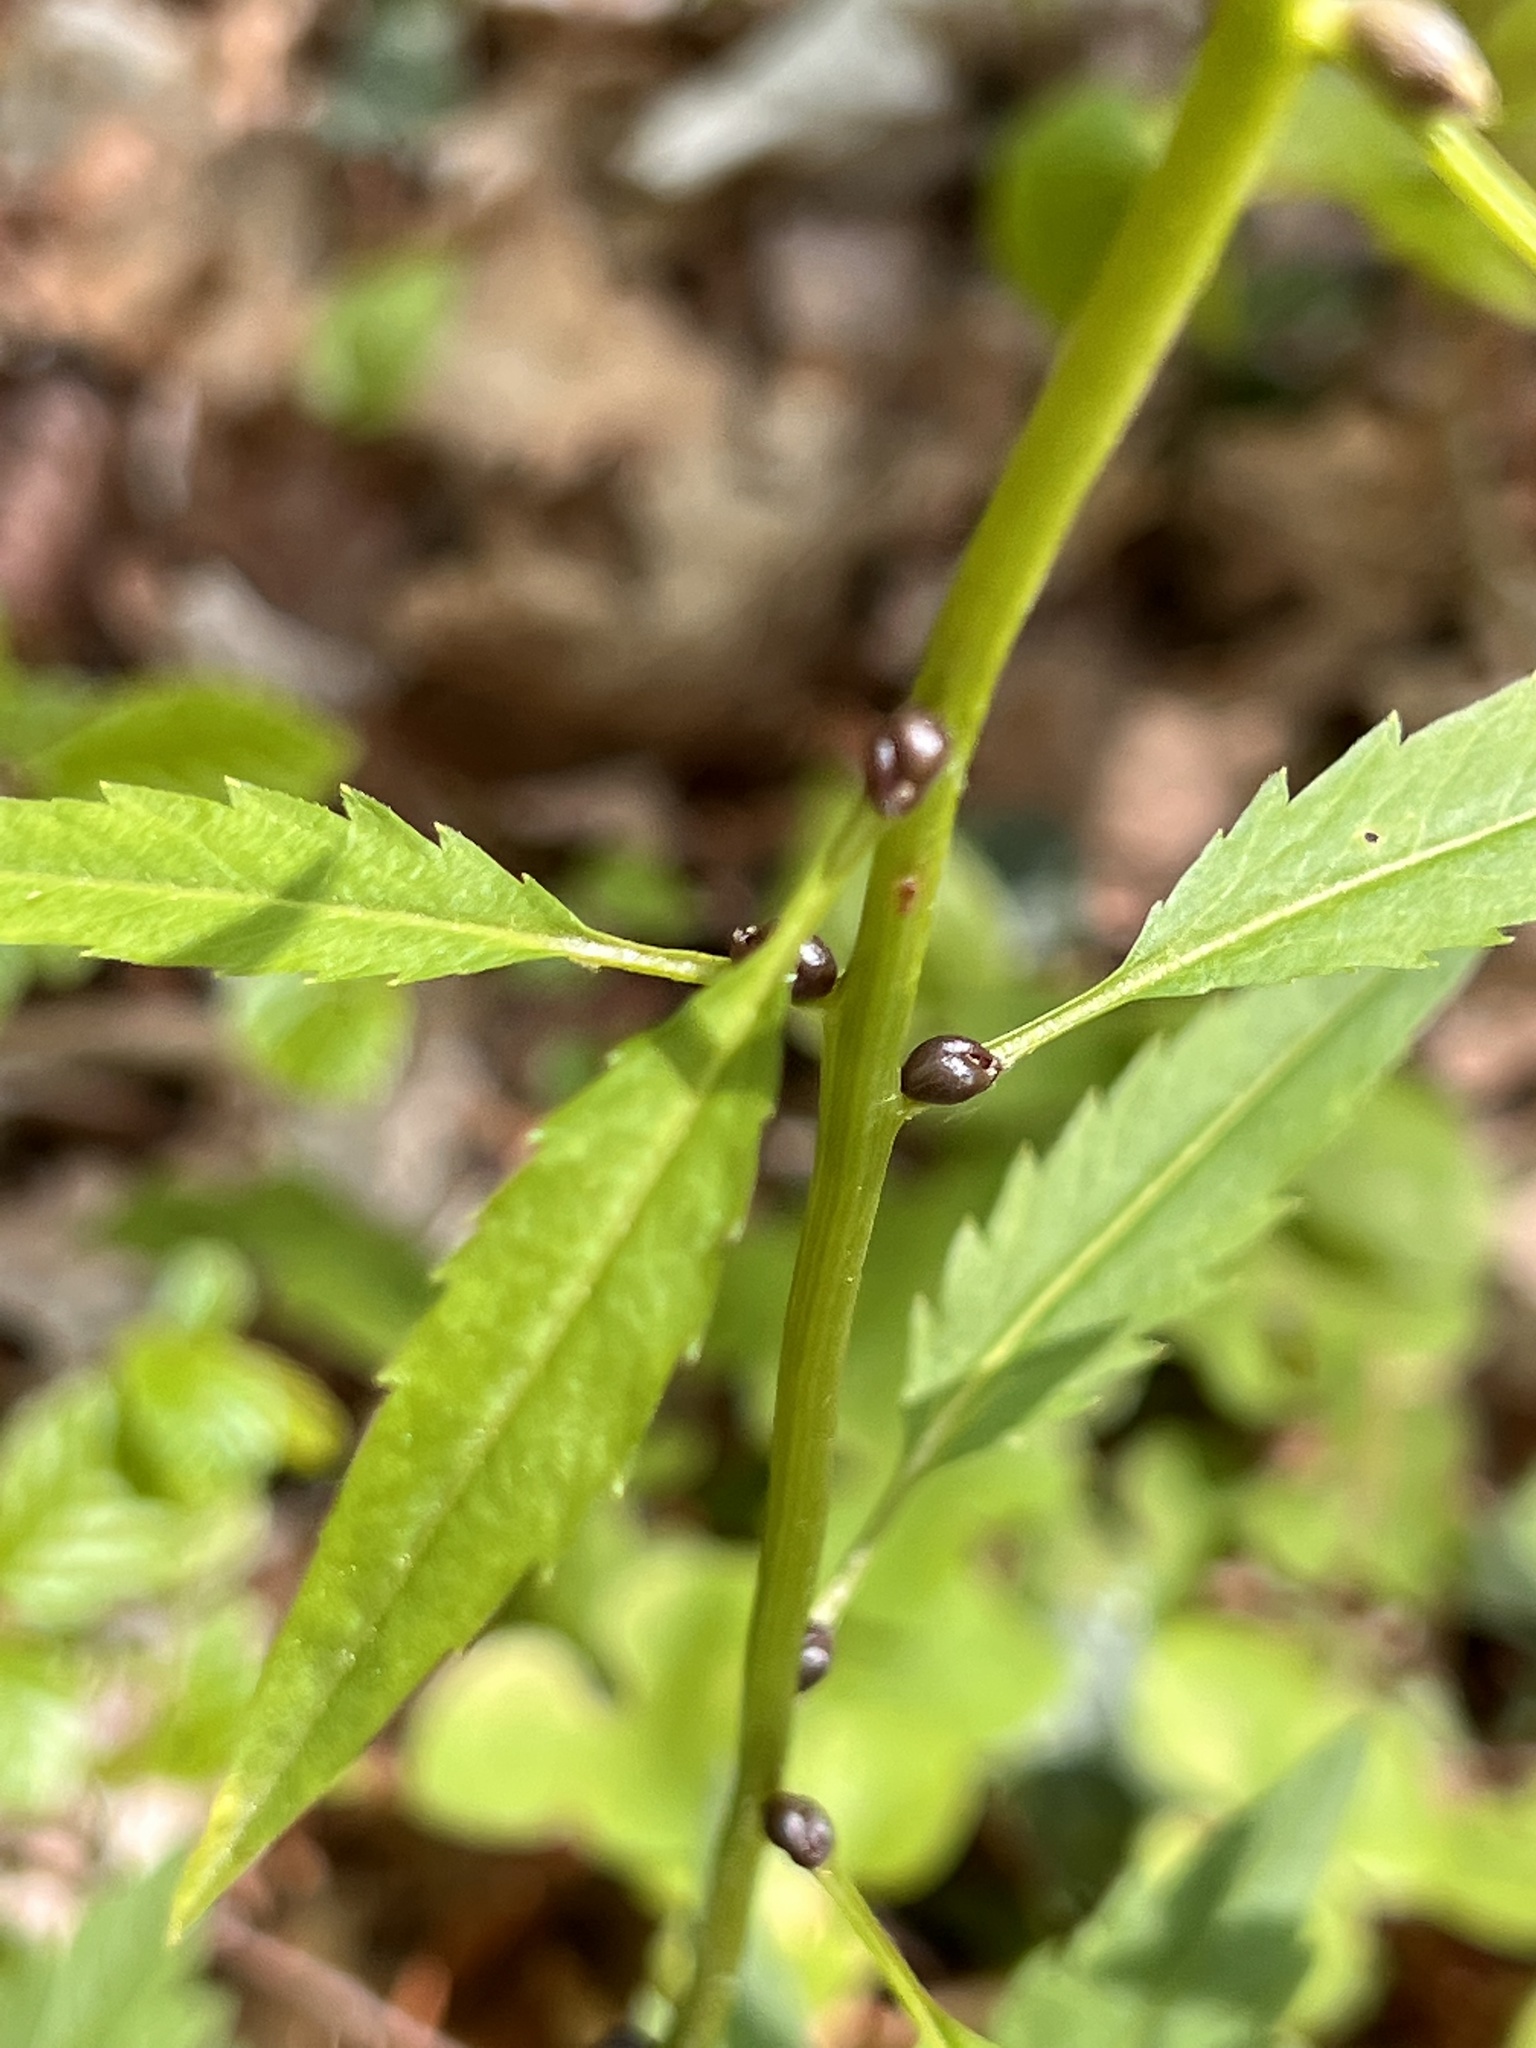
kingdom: Plantae
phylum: Tracheophyta
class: Magnoliopsida
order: Brassicales
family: Brassicaceae
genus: Cardamine
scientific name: Cardamine bulbifera
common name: Coralroot bittercress
